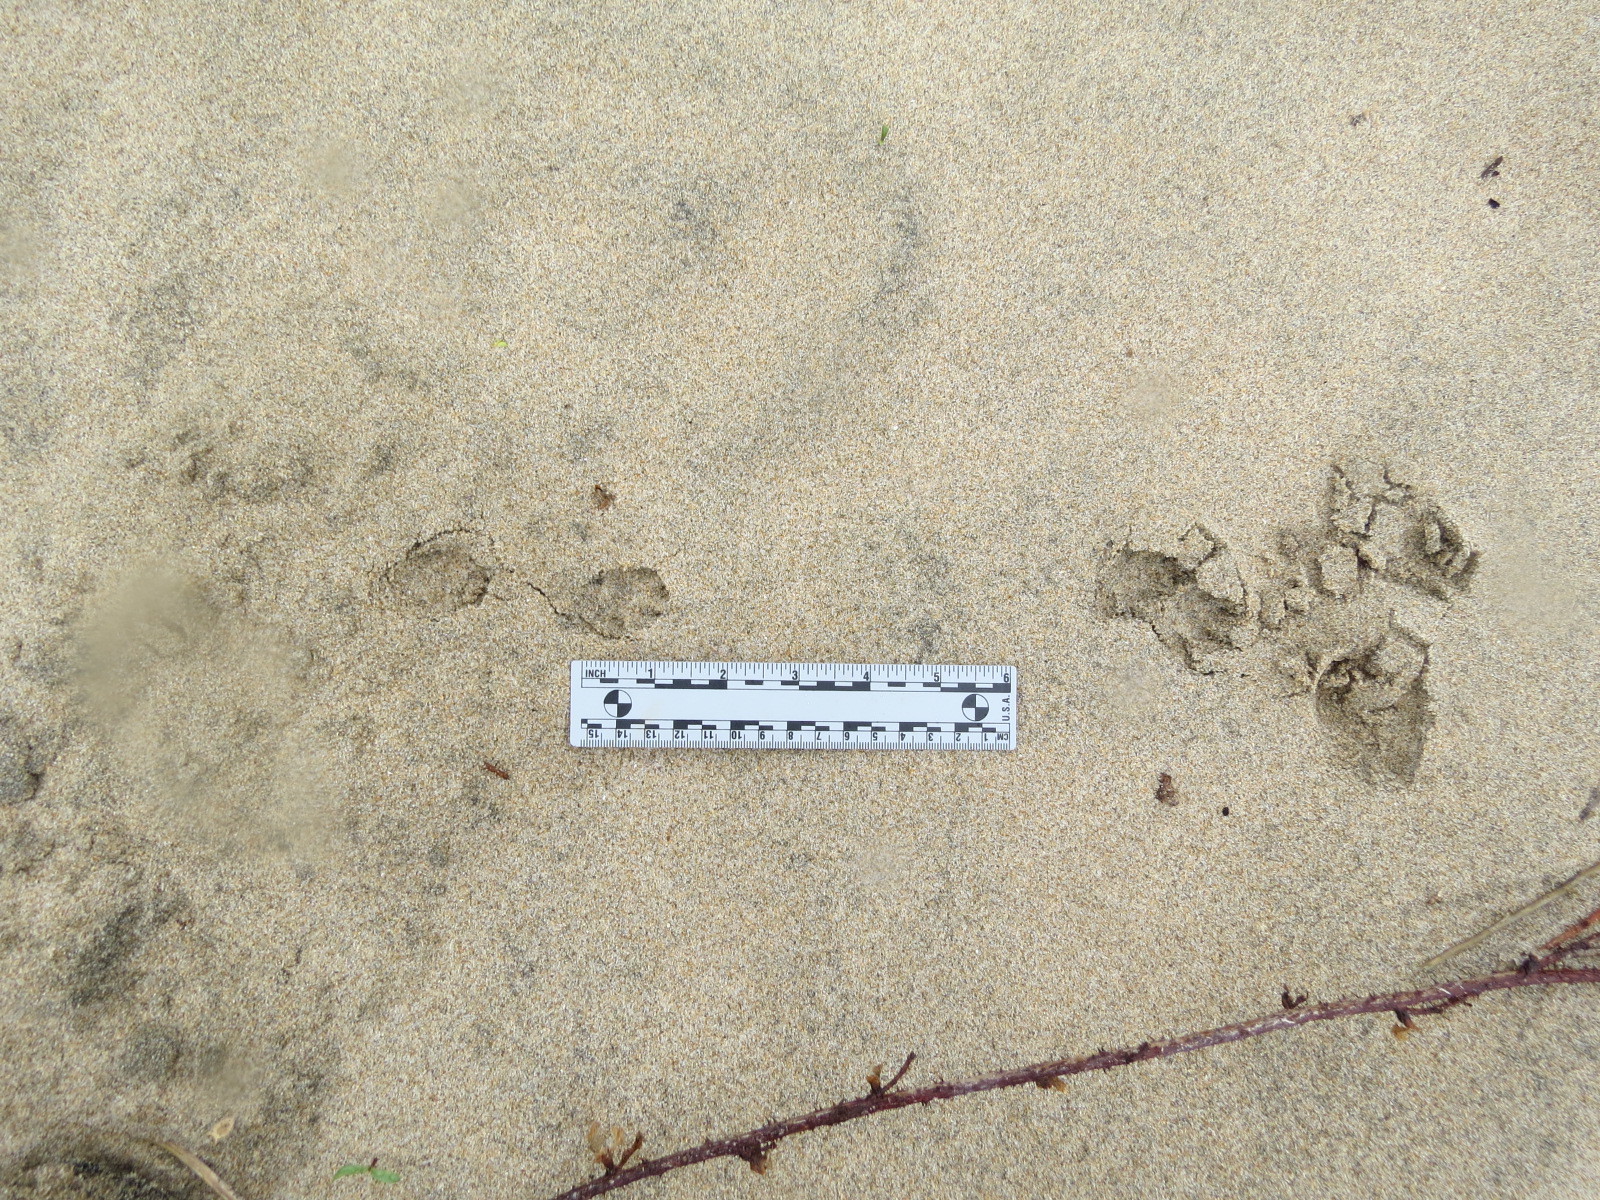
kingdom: Animalia
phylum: Chordata
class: Mammalia
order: Lagomorpha
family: Leporidae
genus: Sylvilagus
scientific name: Sylvilagus bachmani
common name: Brush rabbit
